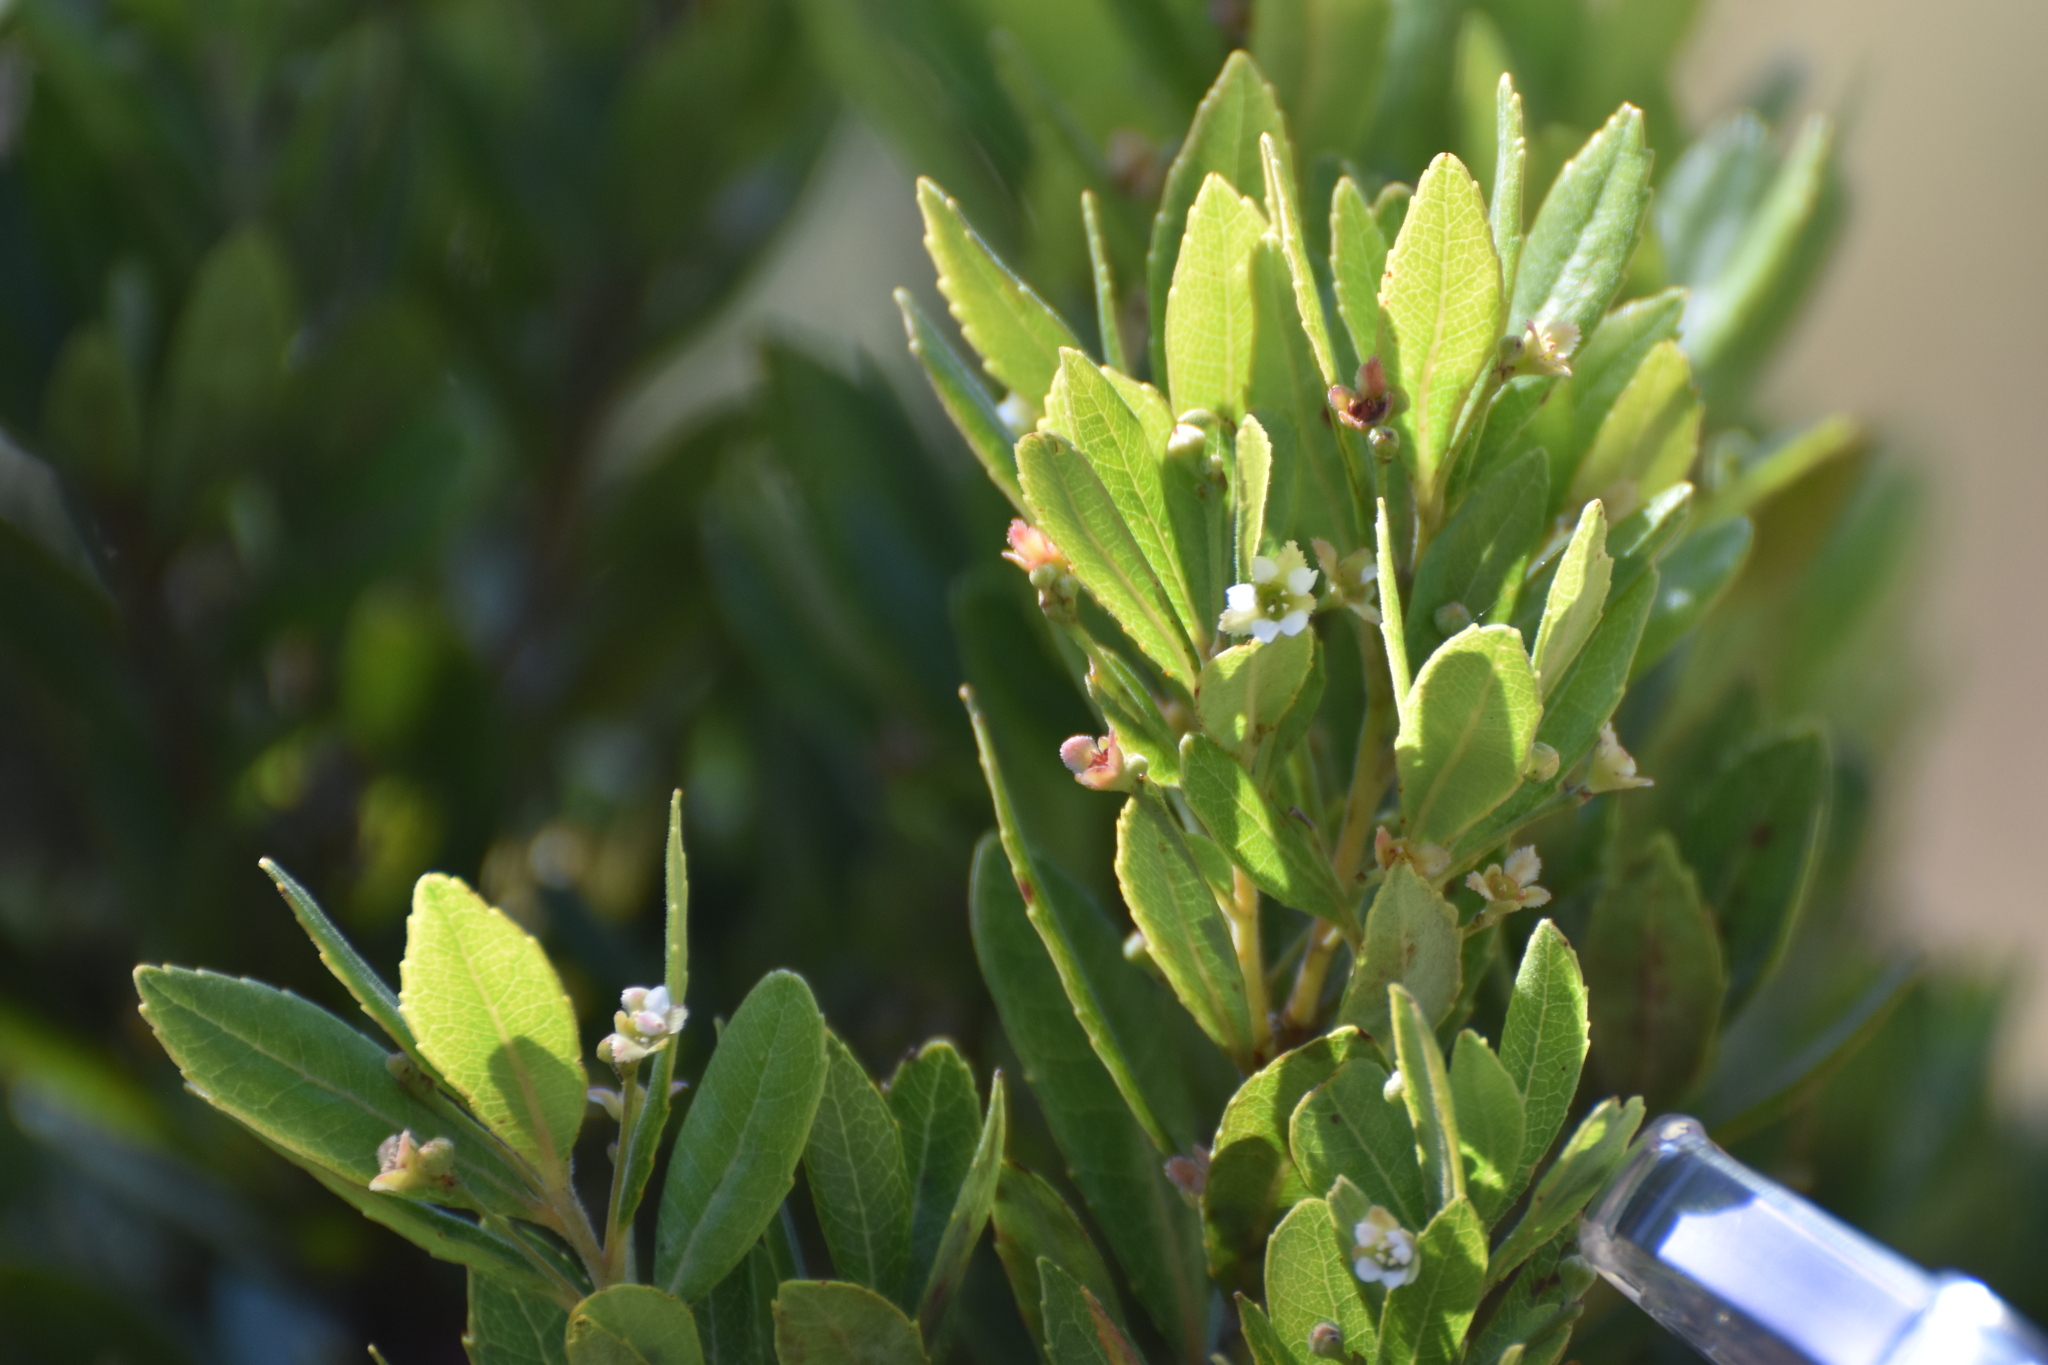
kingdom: Plantae
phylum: Tracheophyta
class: Magnoliopsida
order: Huerteales
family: Gerrardinaceae
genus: Gerrardina
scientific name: Gerrardina foliosa
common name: Krantz-berry
